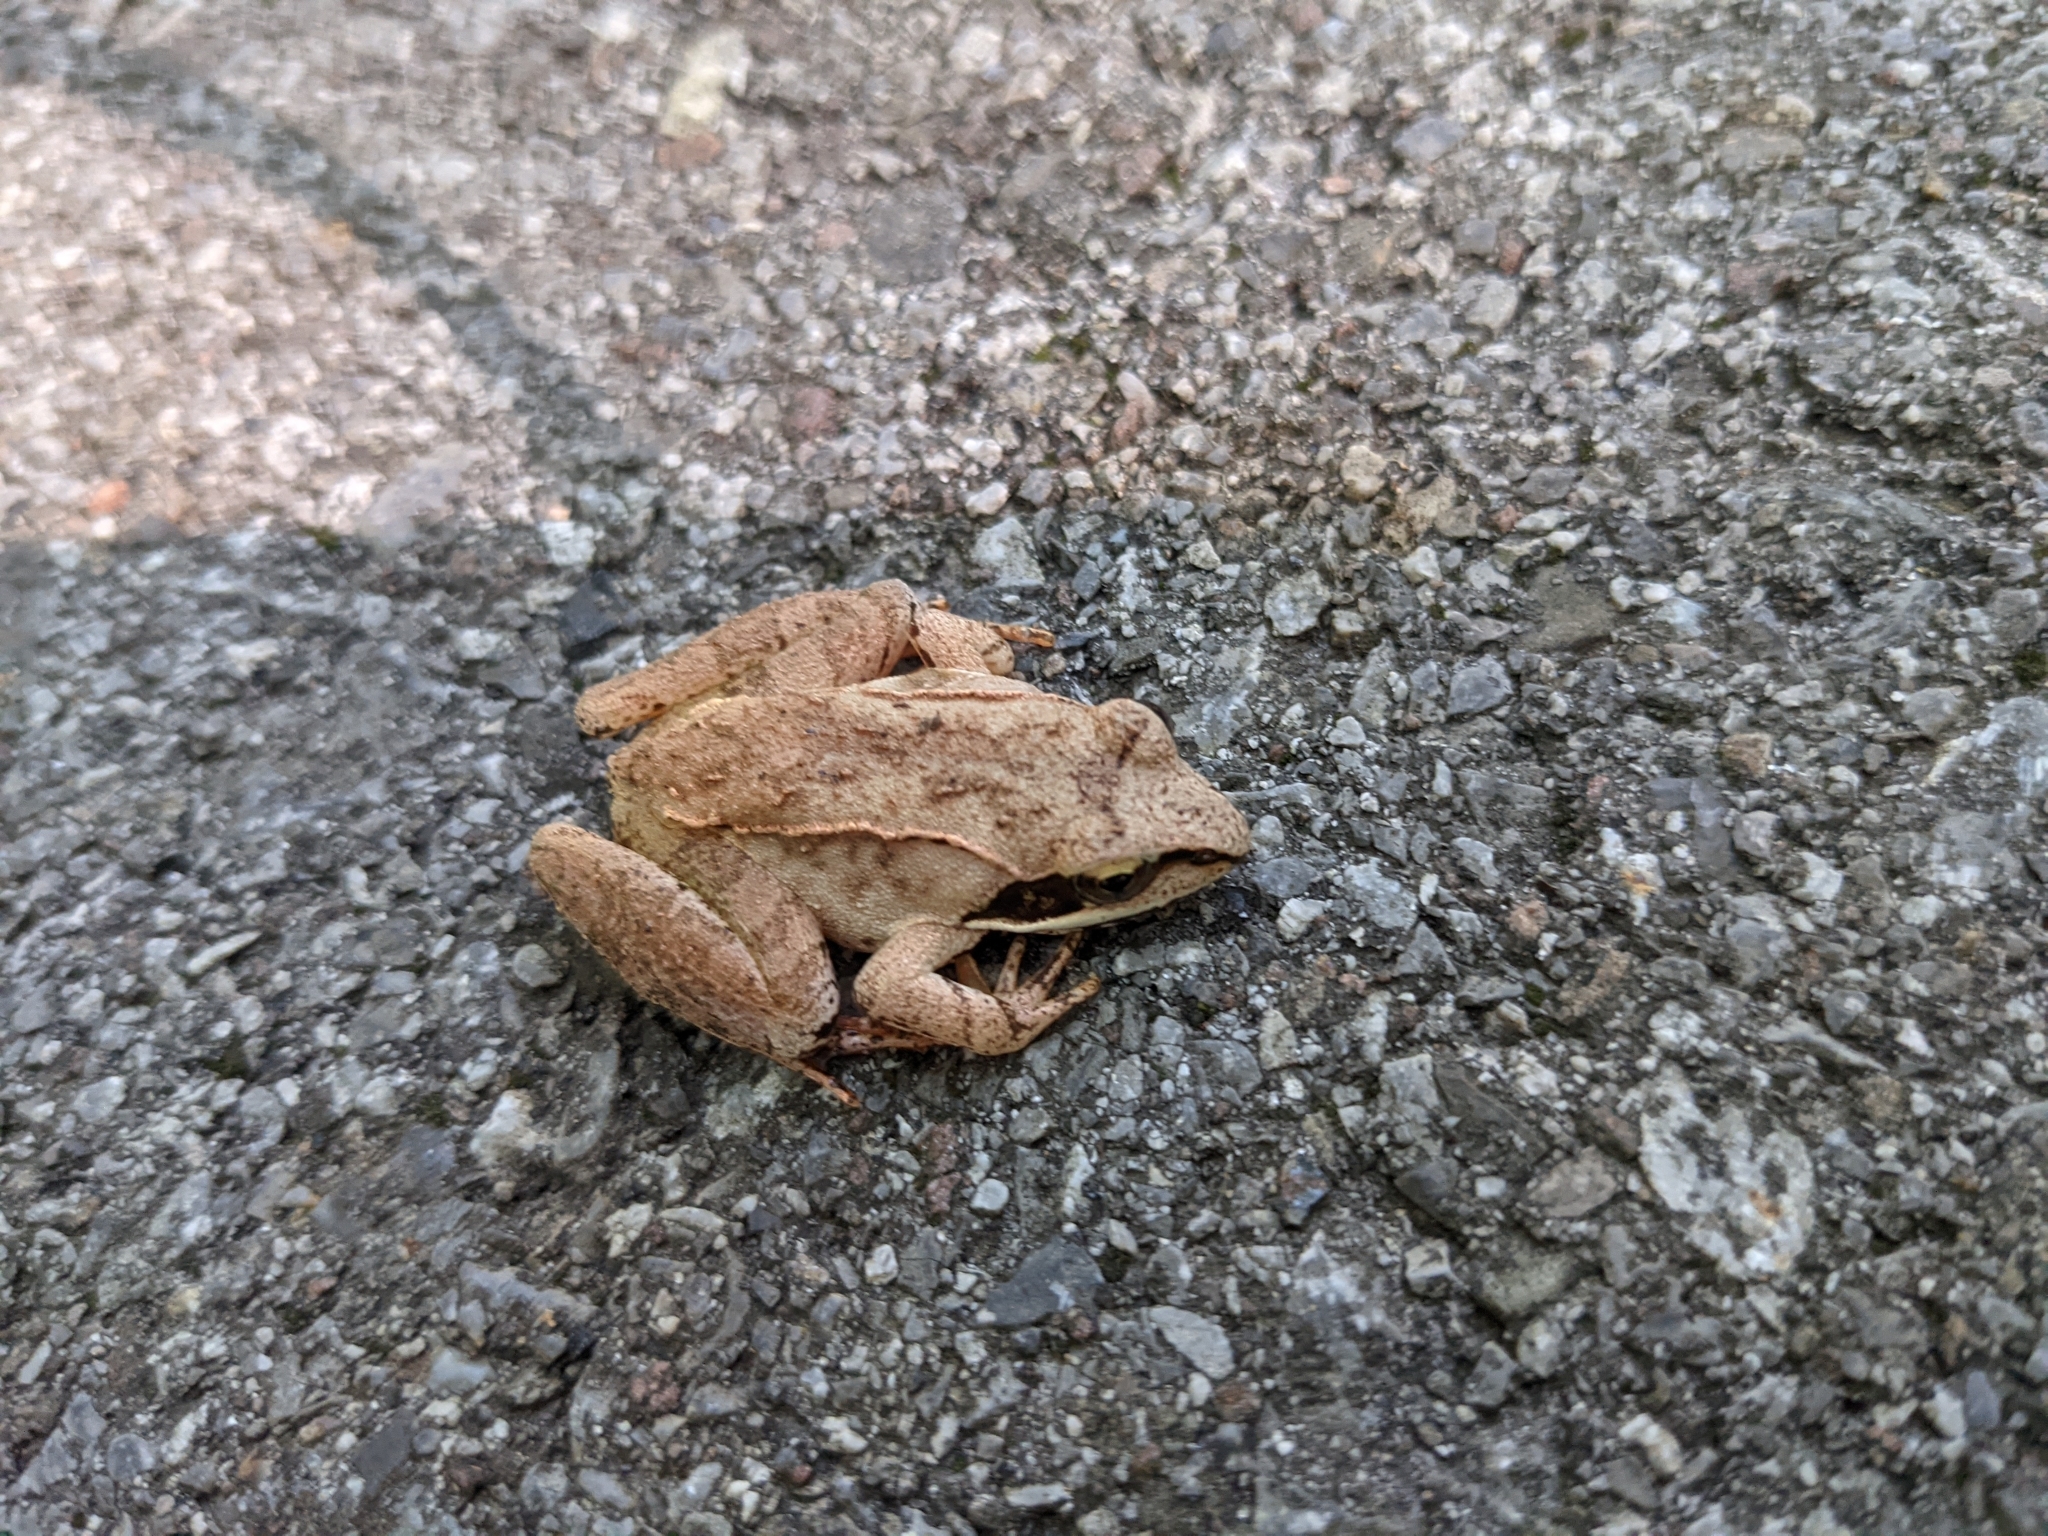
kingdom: Animalia
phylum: Chordata
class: Amphibia
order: Anura
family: Ranidae
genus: Lithobates
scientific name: Lithobates sylvaticus
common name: Wood frog
